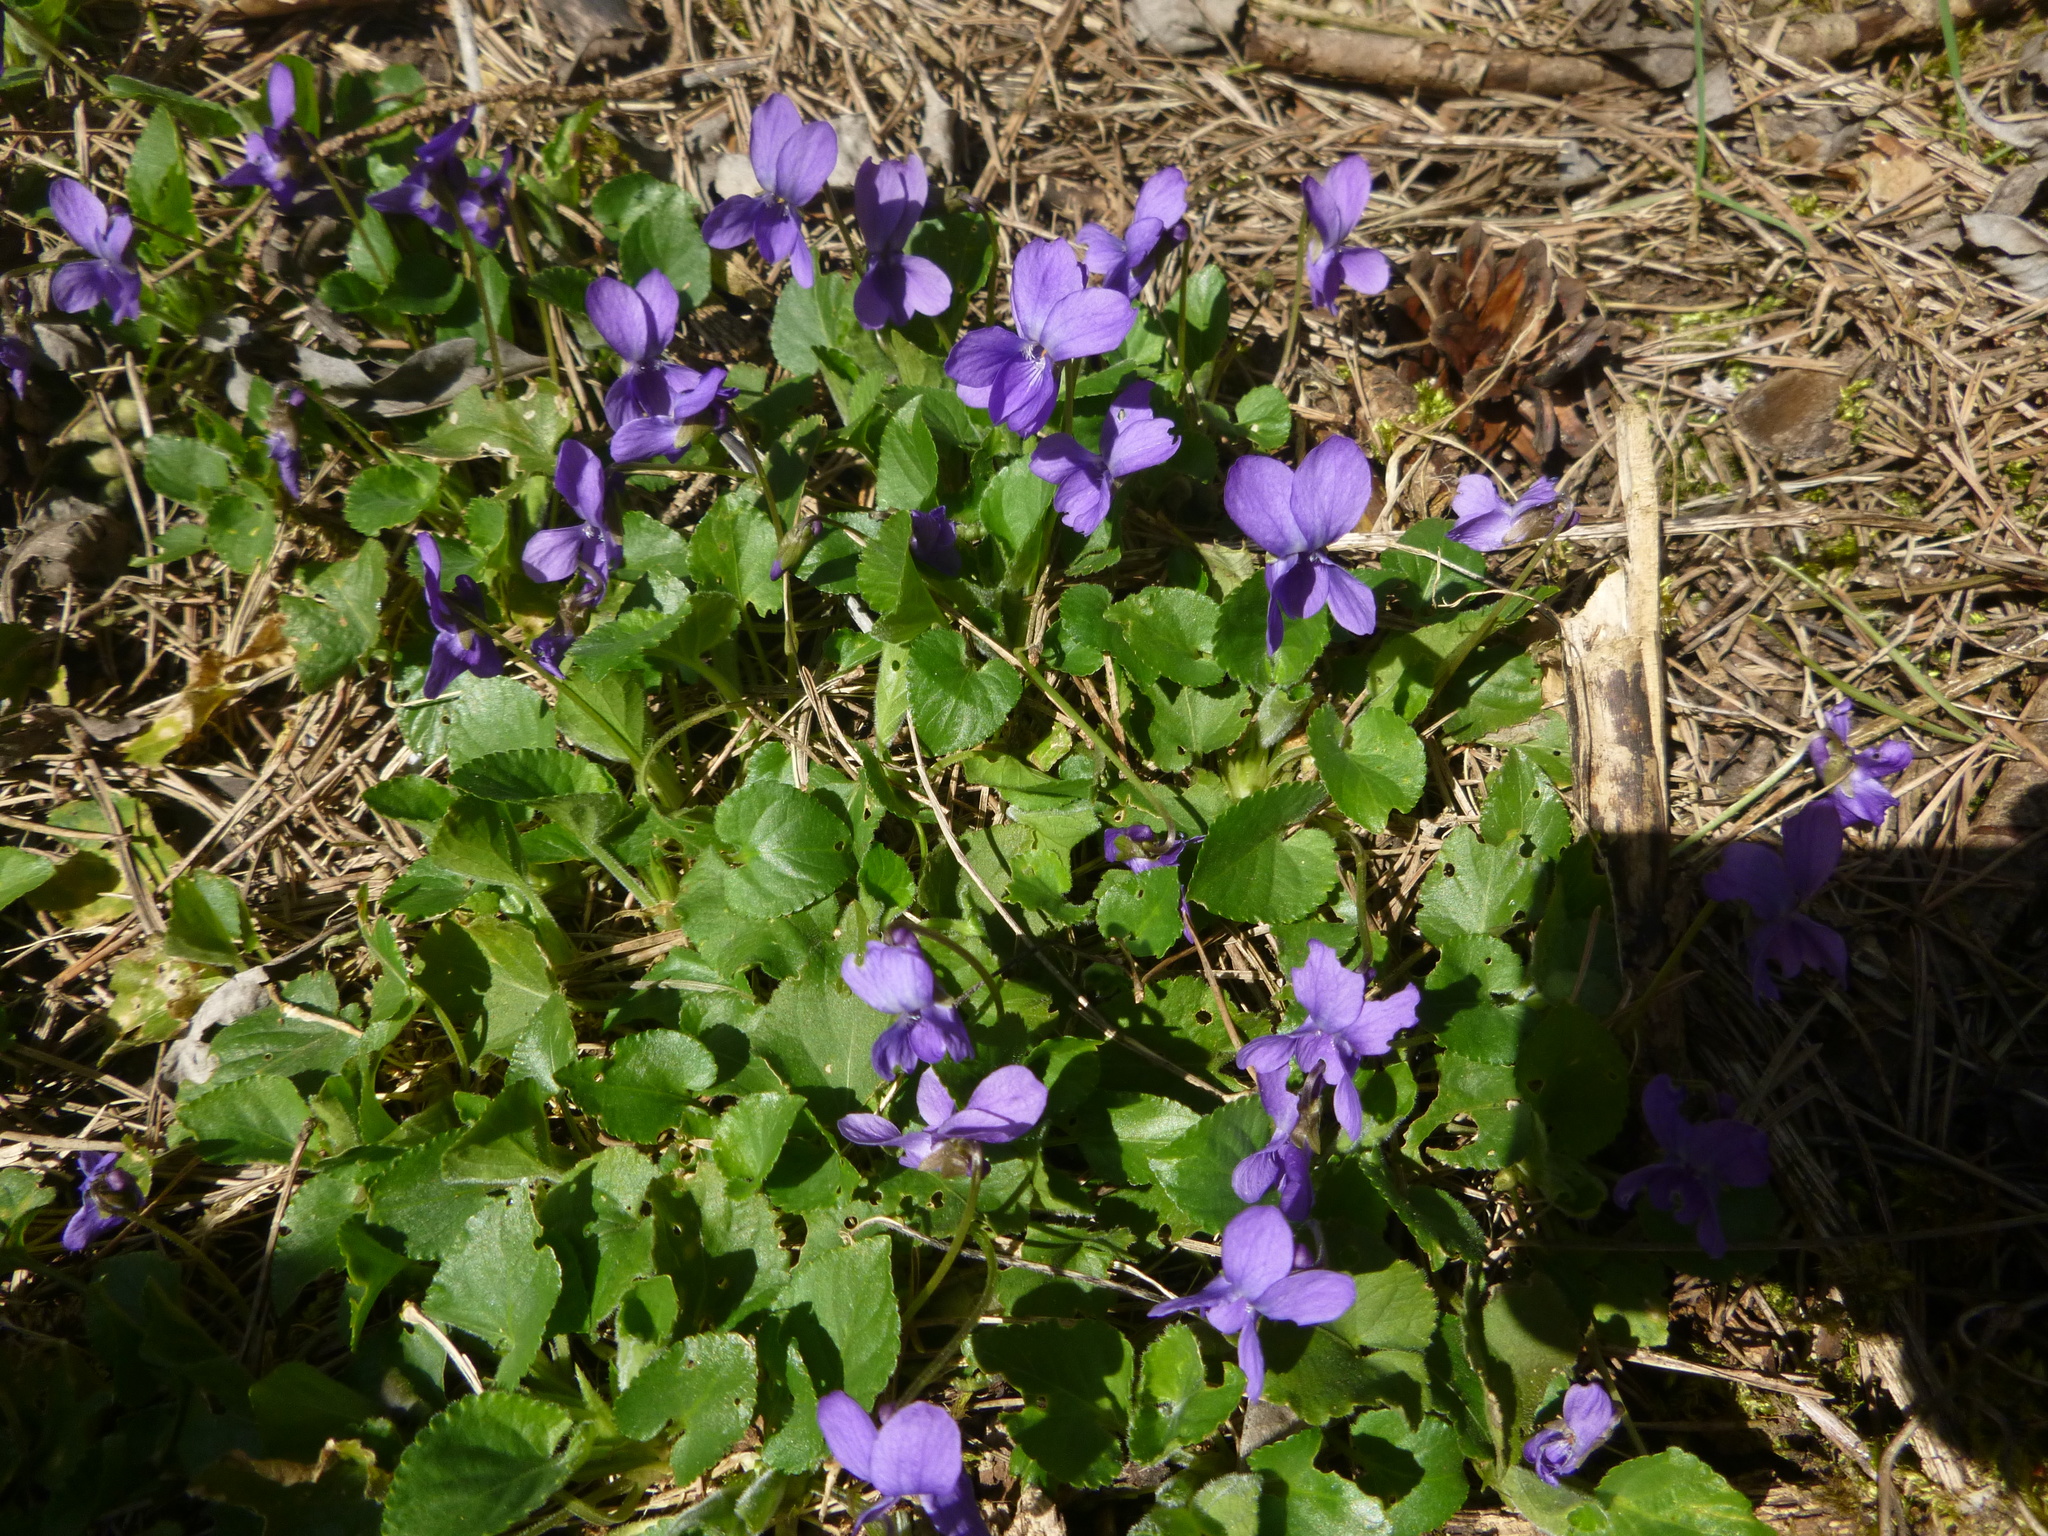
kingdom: Plantae
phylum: Tracheophyta
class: Magnoliopsida
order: Malpighiales
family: Violaceae
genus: Viola
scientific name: Viola odorata
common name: Sweet violet
